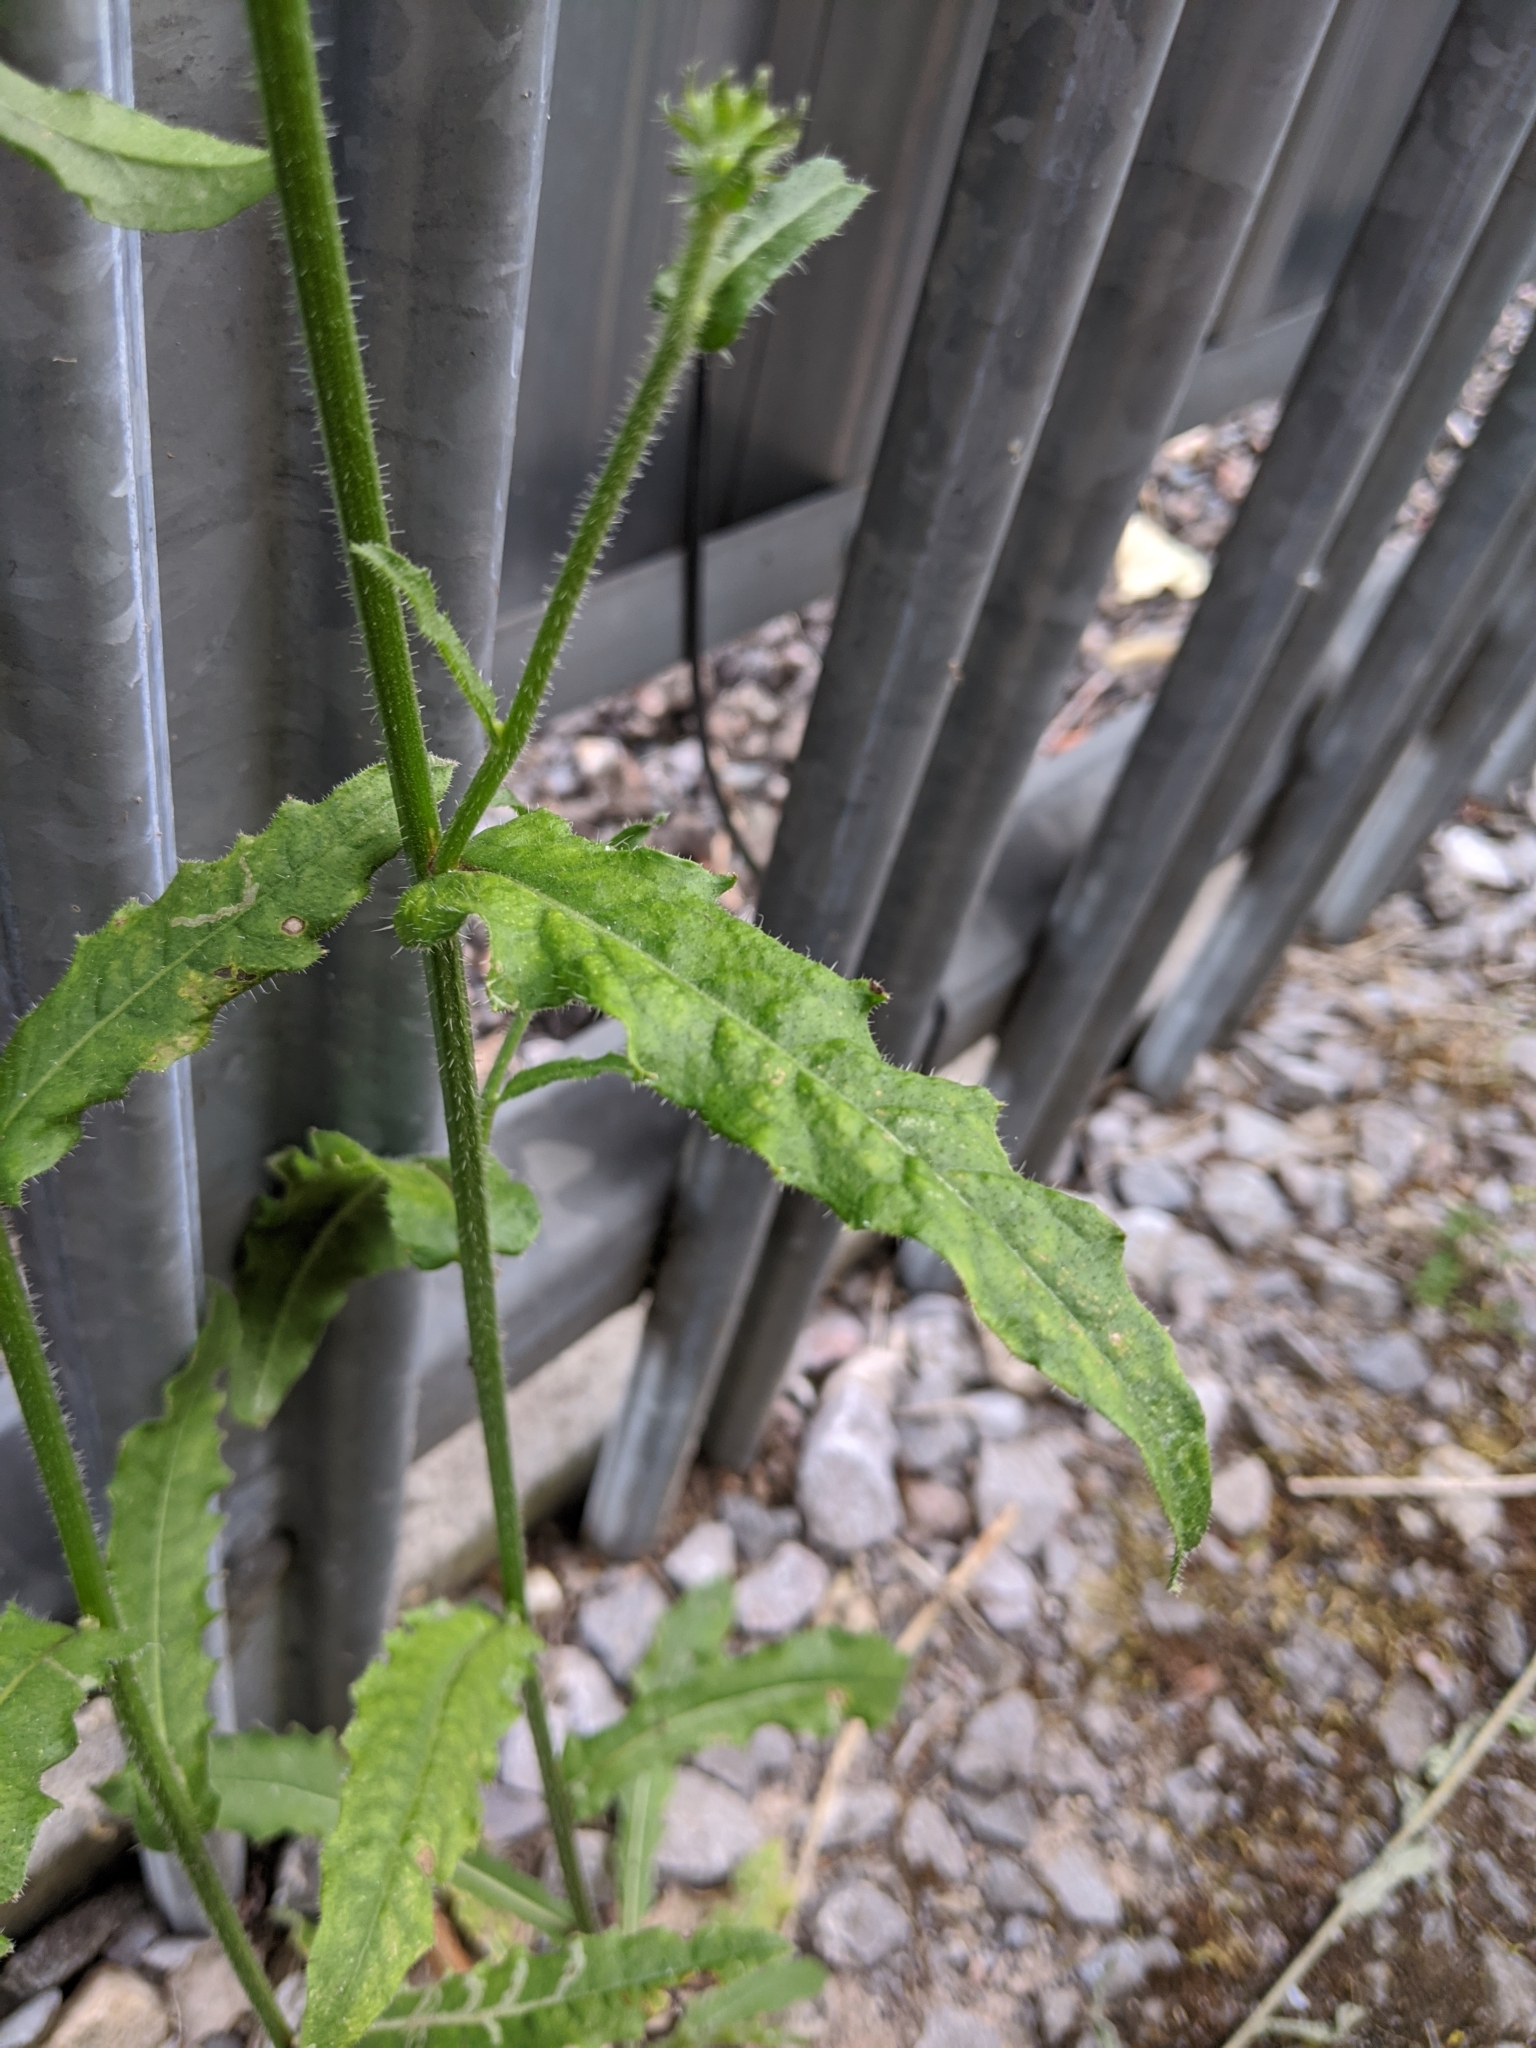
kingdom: Plantae
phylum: Tracheophyta
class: Magnoliopsida
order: Asterales
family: Asteraceae
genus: Picris
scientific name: Picris hieracioides
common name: Hawkweed oxtongue
